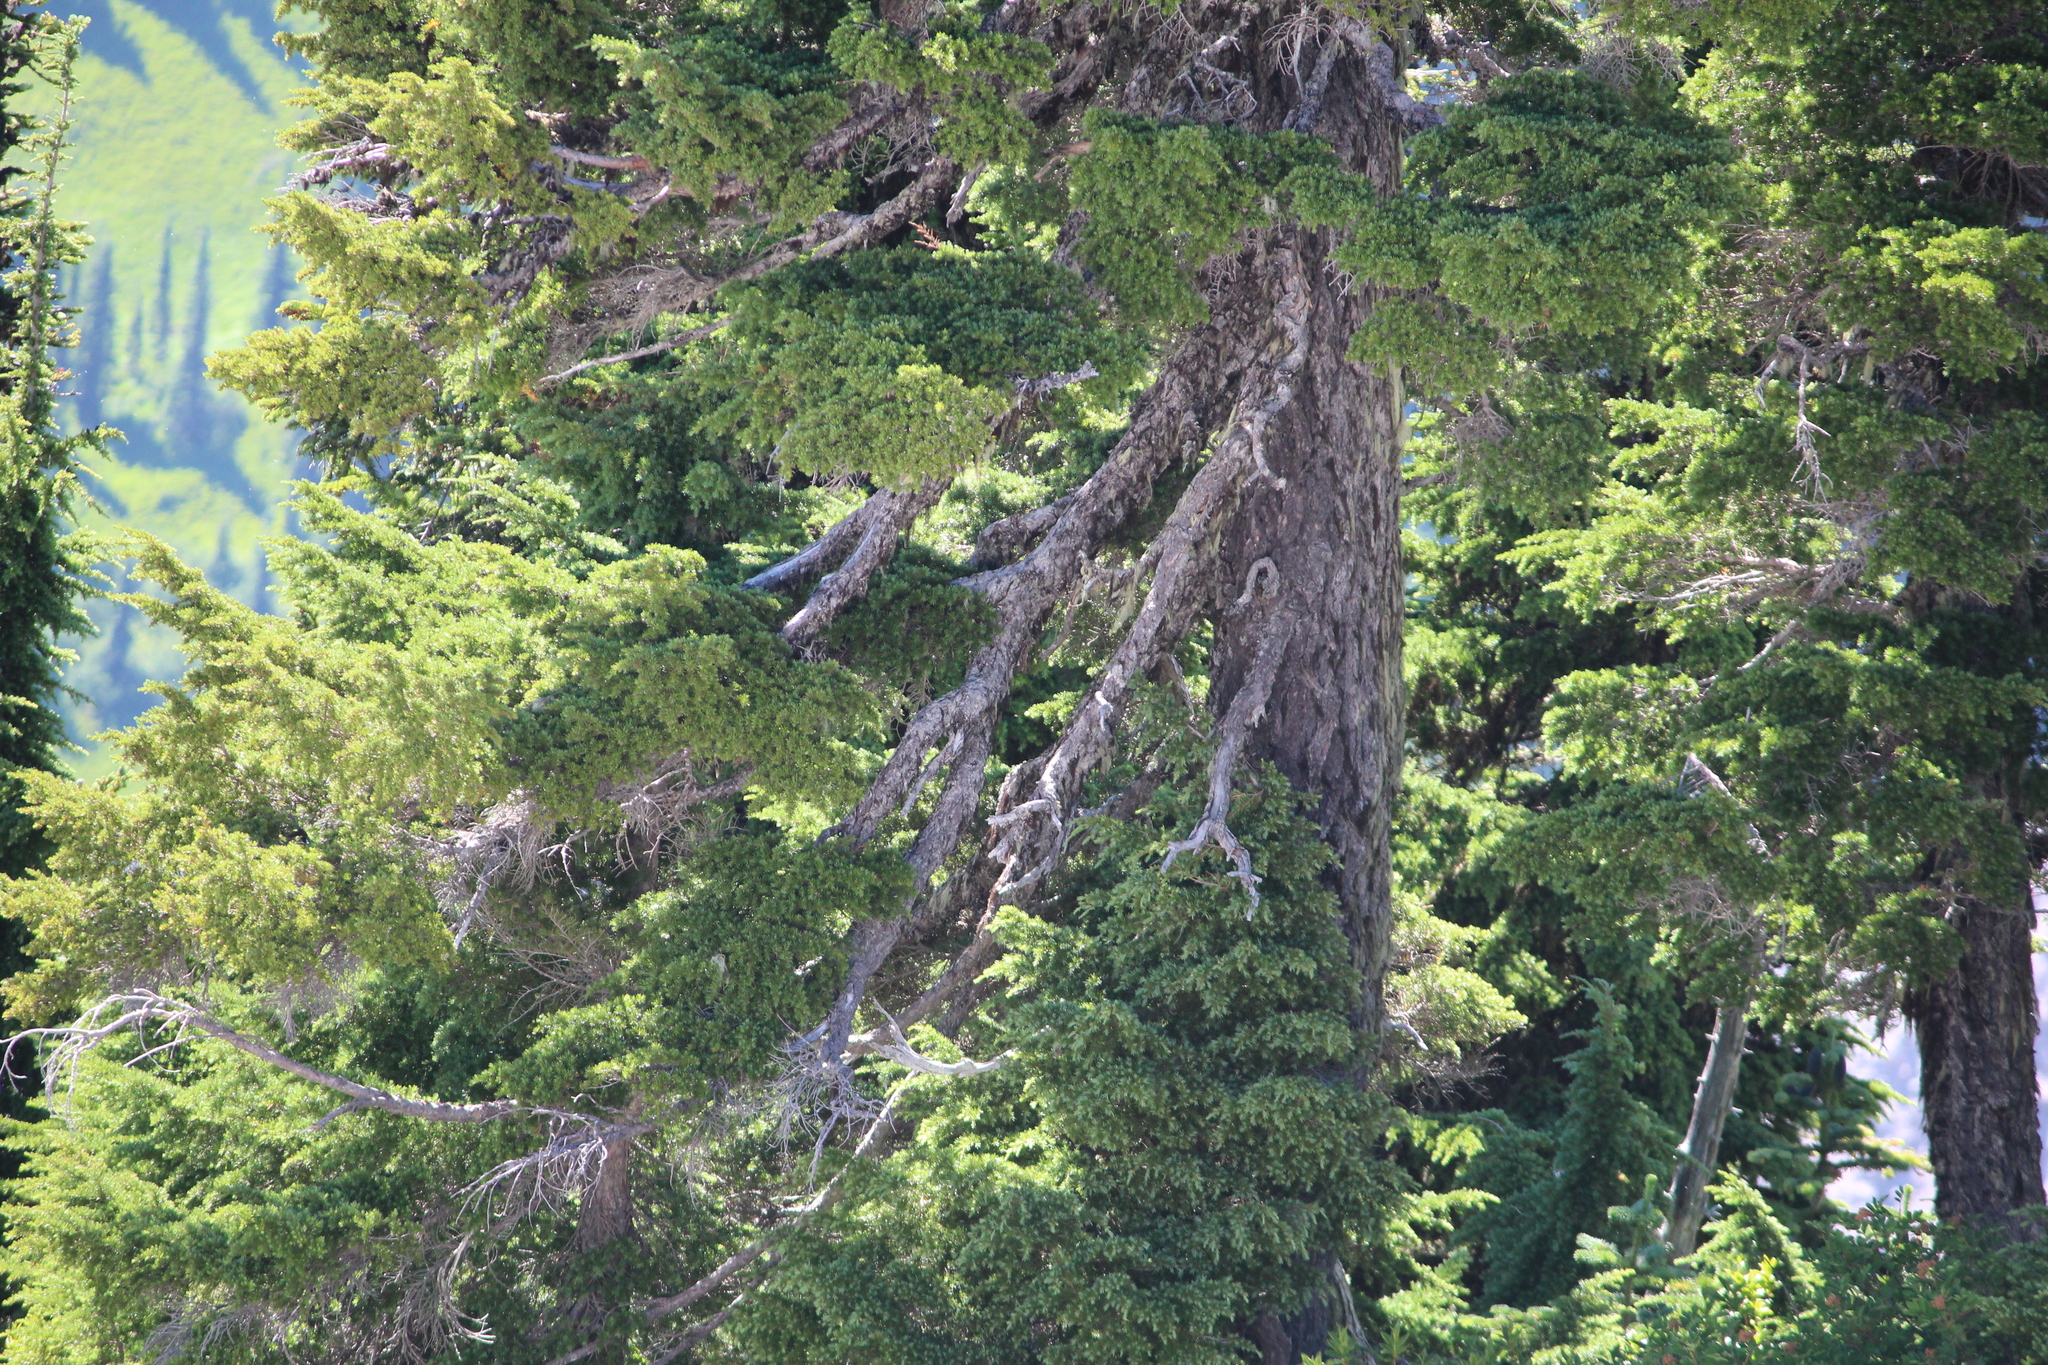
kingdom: Plantae
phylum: Tracheophyta
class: Pinopsida
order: Pinales
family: Pinaceae
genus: Tsuga
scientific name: Tsuga mertensiana
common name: Mountain hemlock
